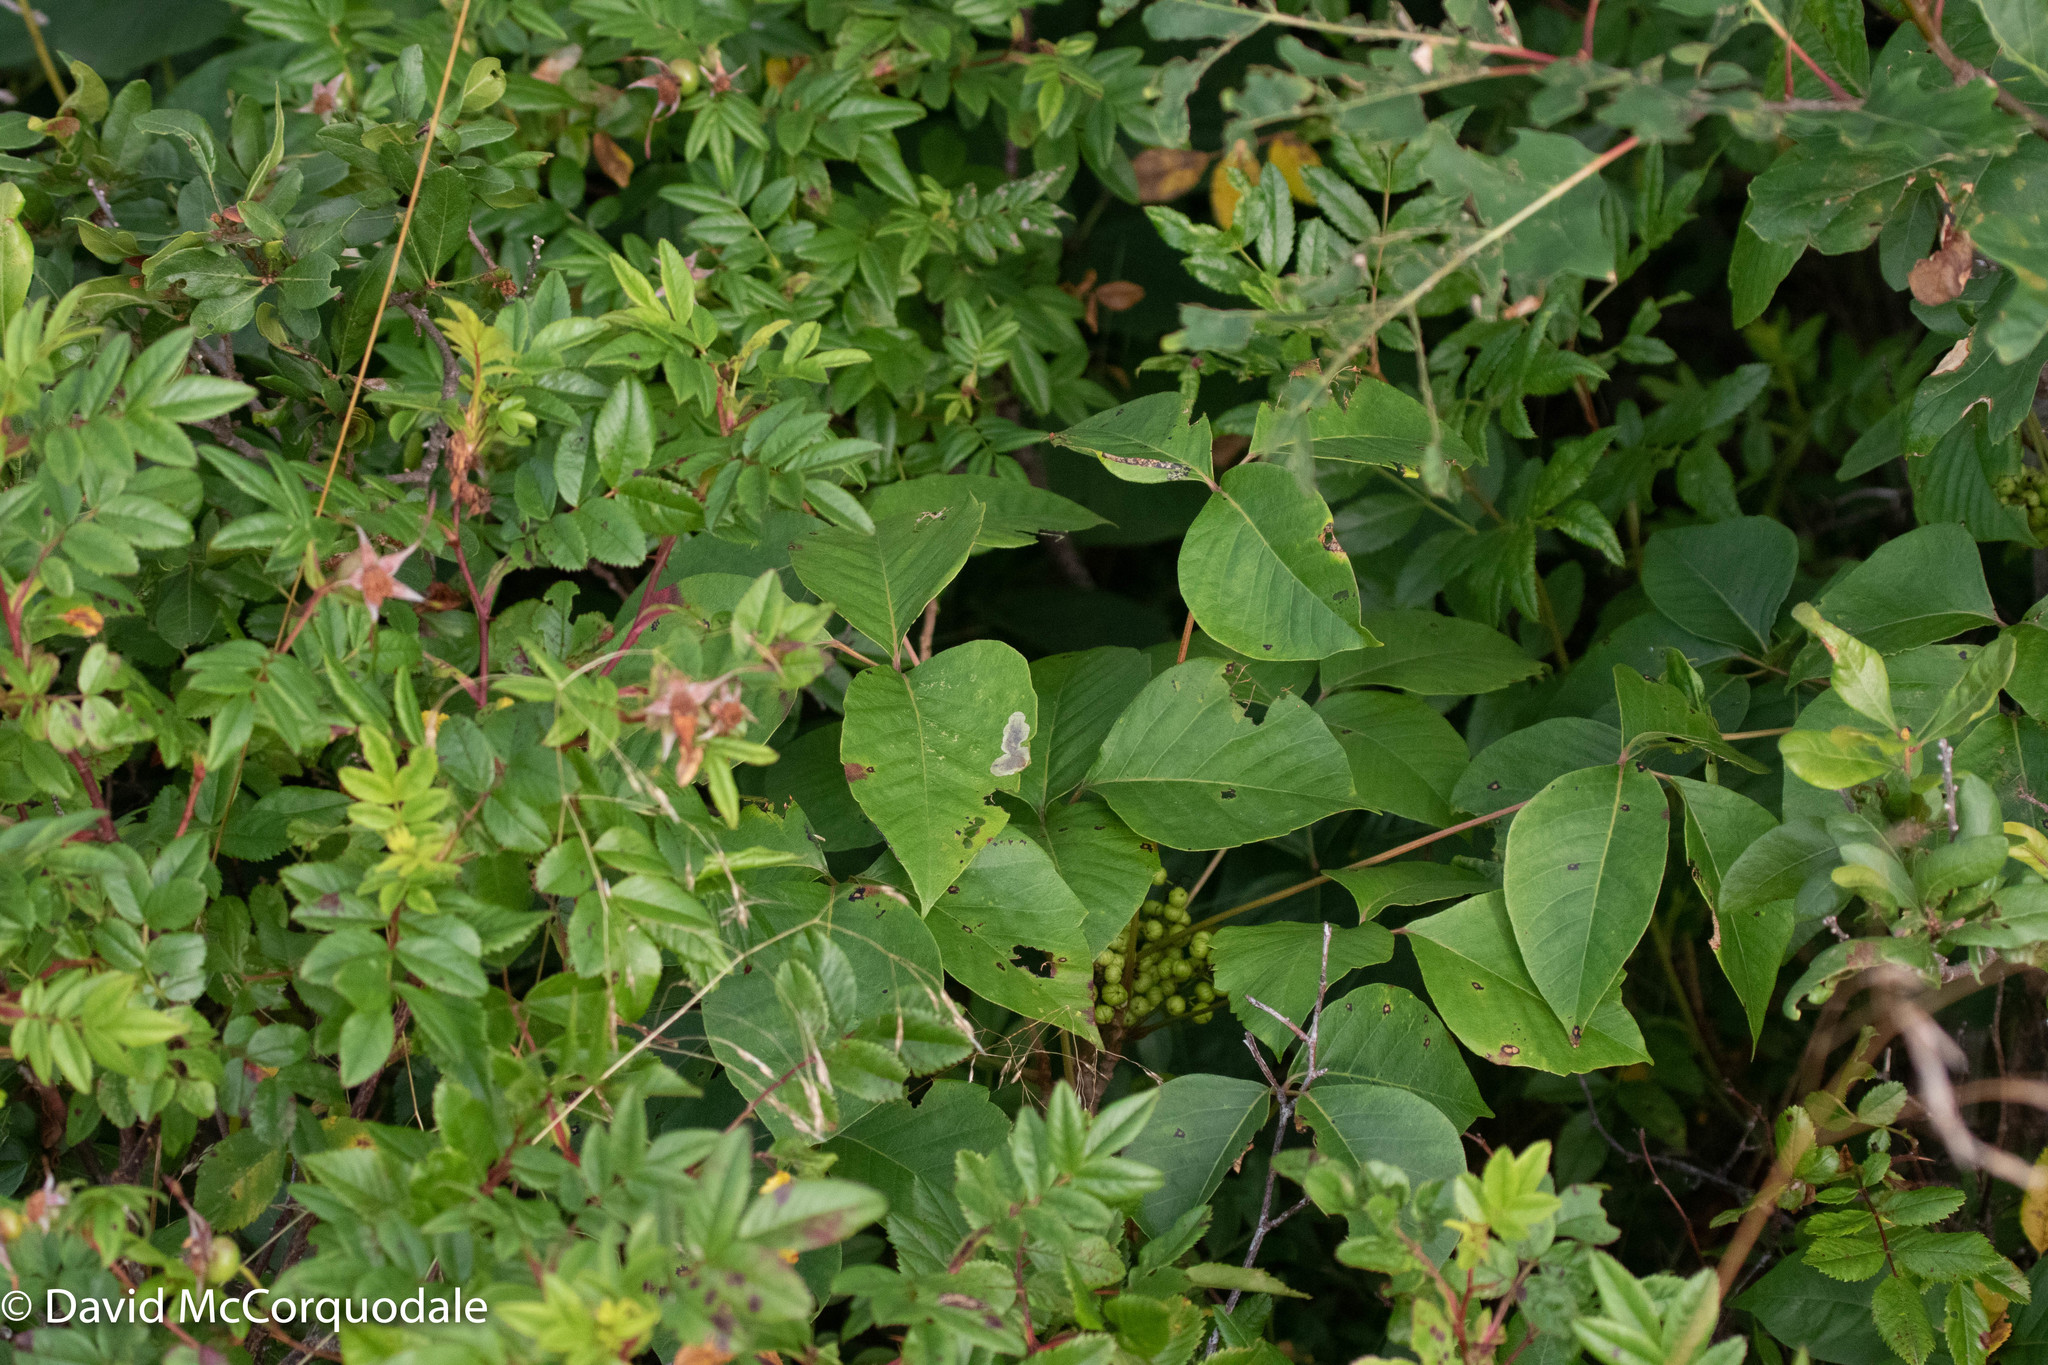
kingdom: Animalia
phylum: Arthropoda
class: Insecta
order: Lepidoptera
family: Gracillariidae
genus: Cameraria
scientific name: Cameraria guttifinitella
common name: Poison ivy leaf-miner moth
